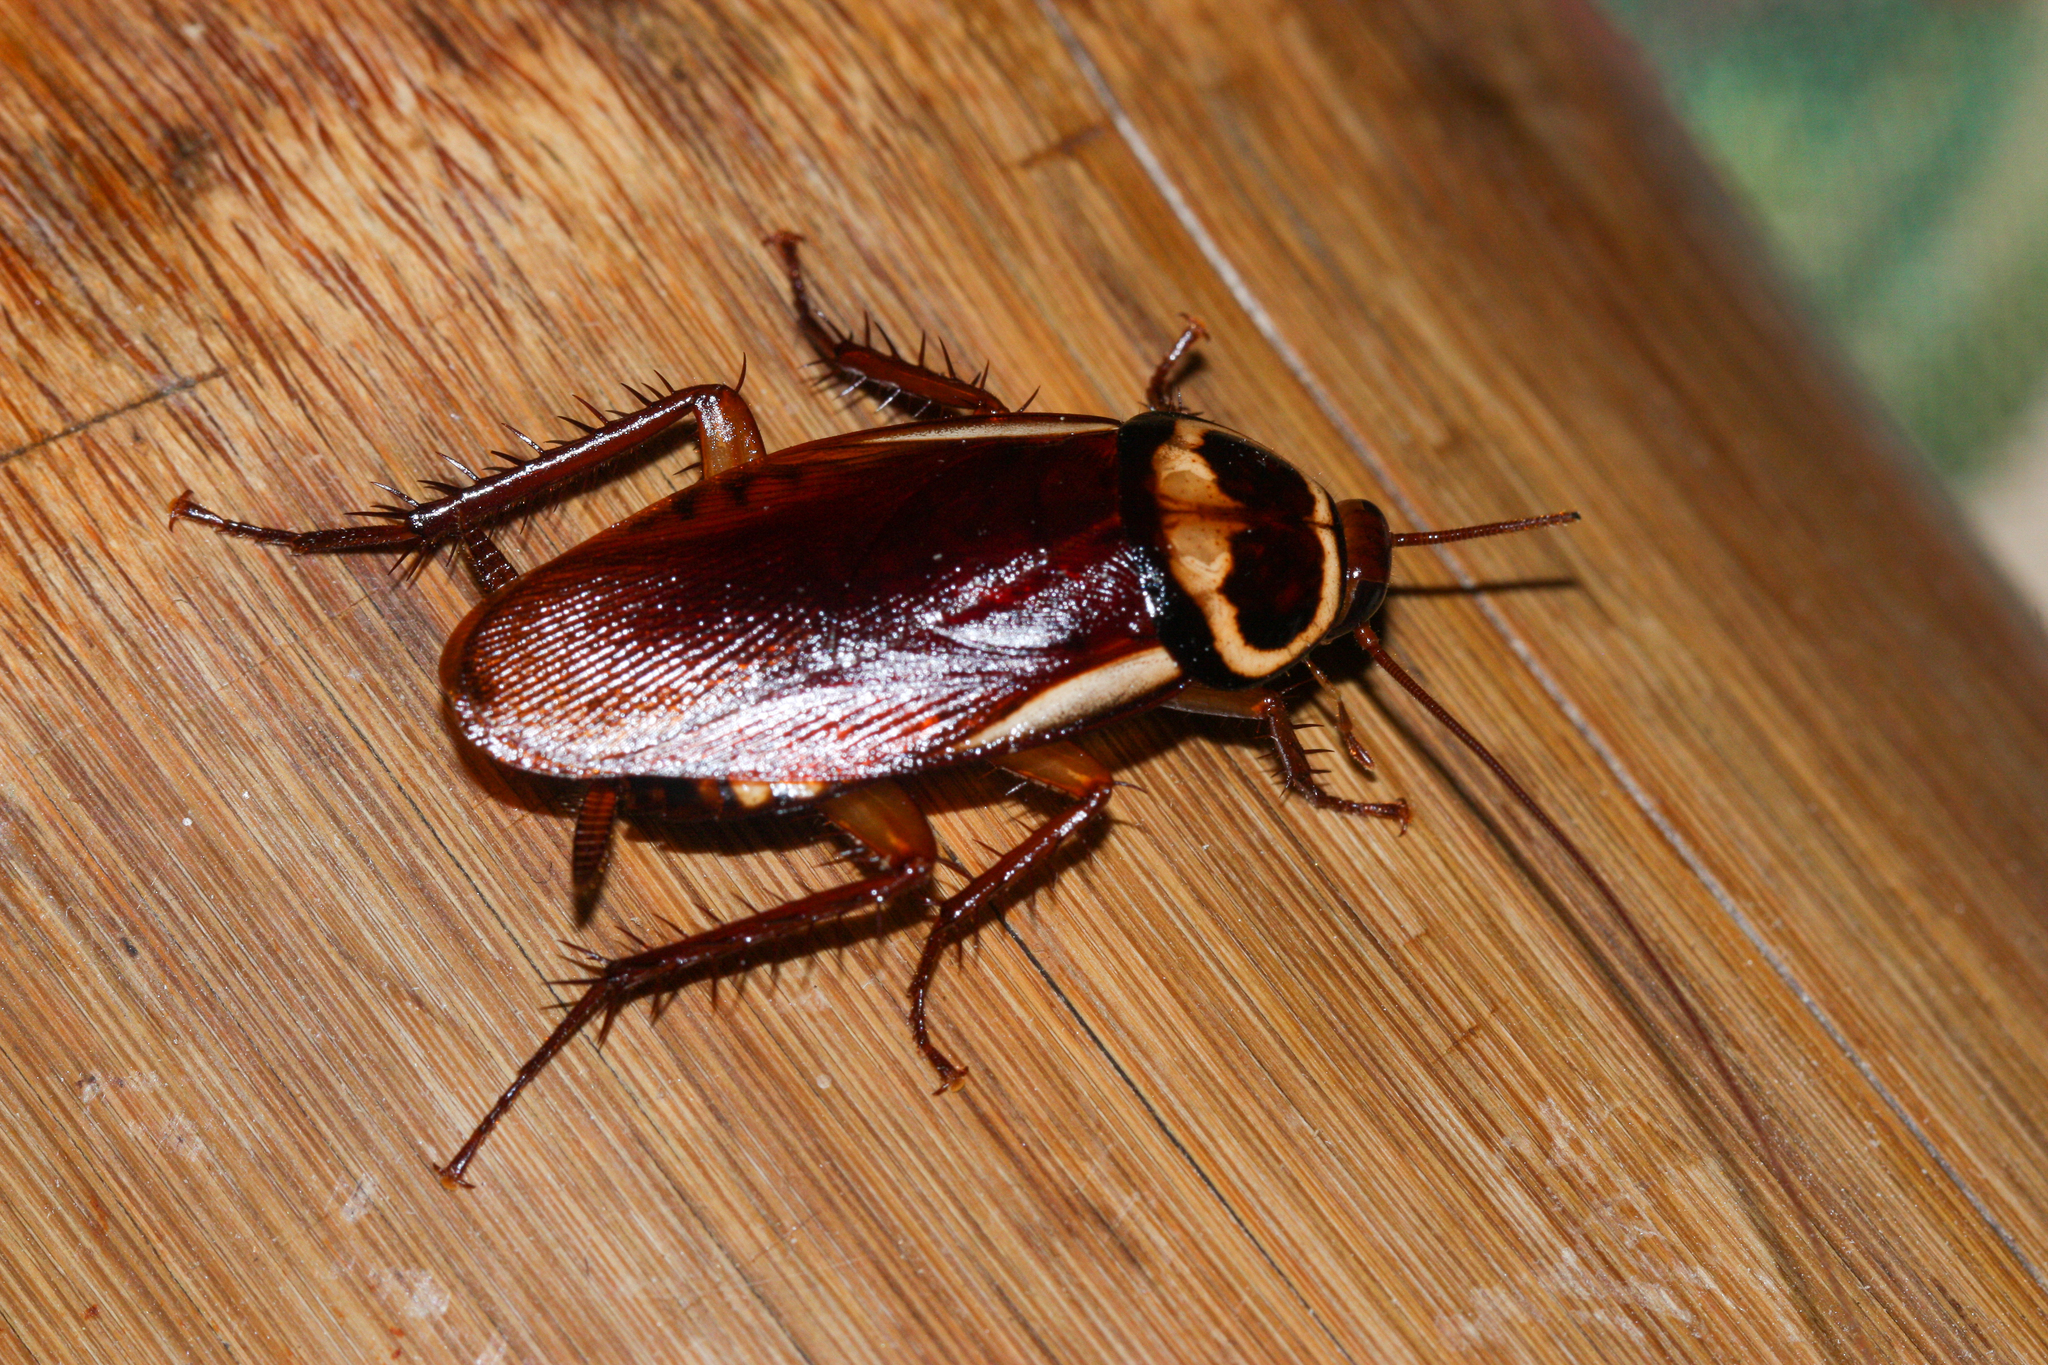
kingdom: Animalia
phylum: Arthropoda
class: Insecta
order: Blattodea
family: Blattidae
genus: Periplaneta
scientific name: Periplaneta australasiae
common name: Australian cockroach
